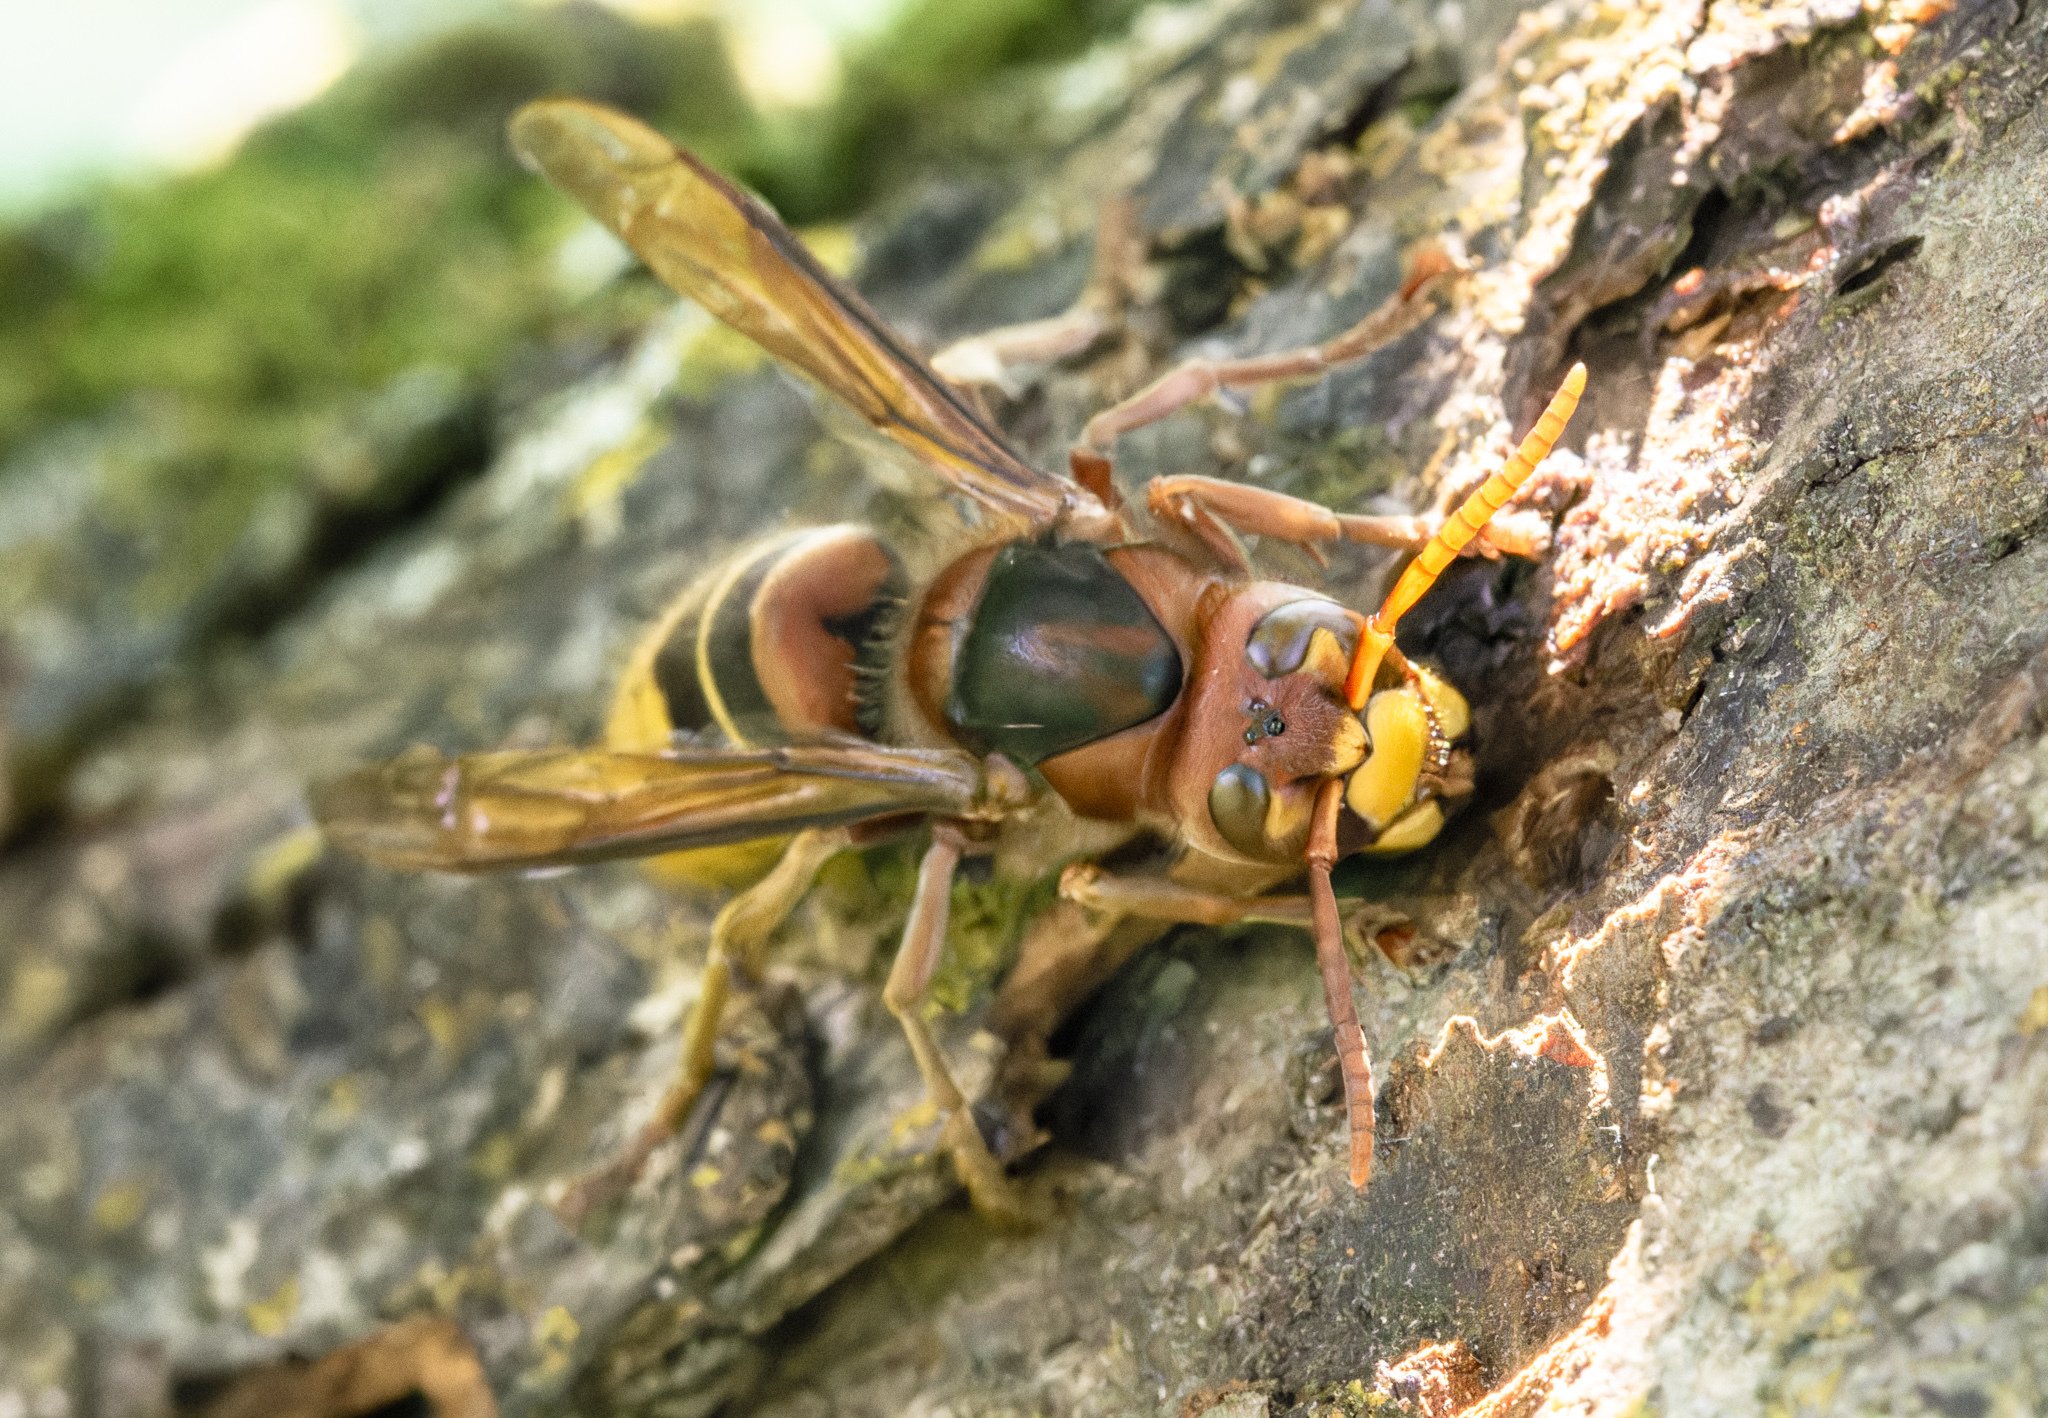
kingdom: Animalia
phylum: Arthropoda
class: Insecta
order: Hymenoptera
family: Vespidae
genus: Vespa
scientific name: Vespa crabro
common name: Hornet
